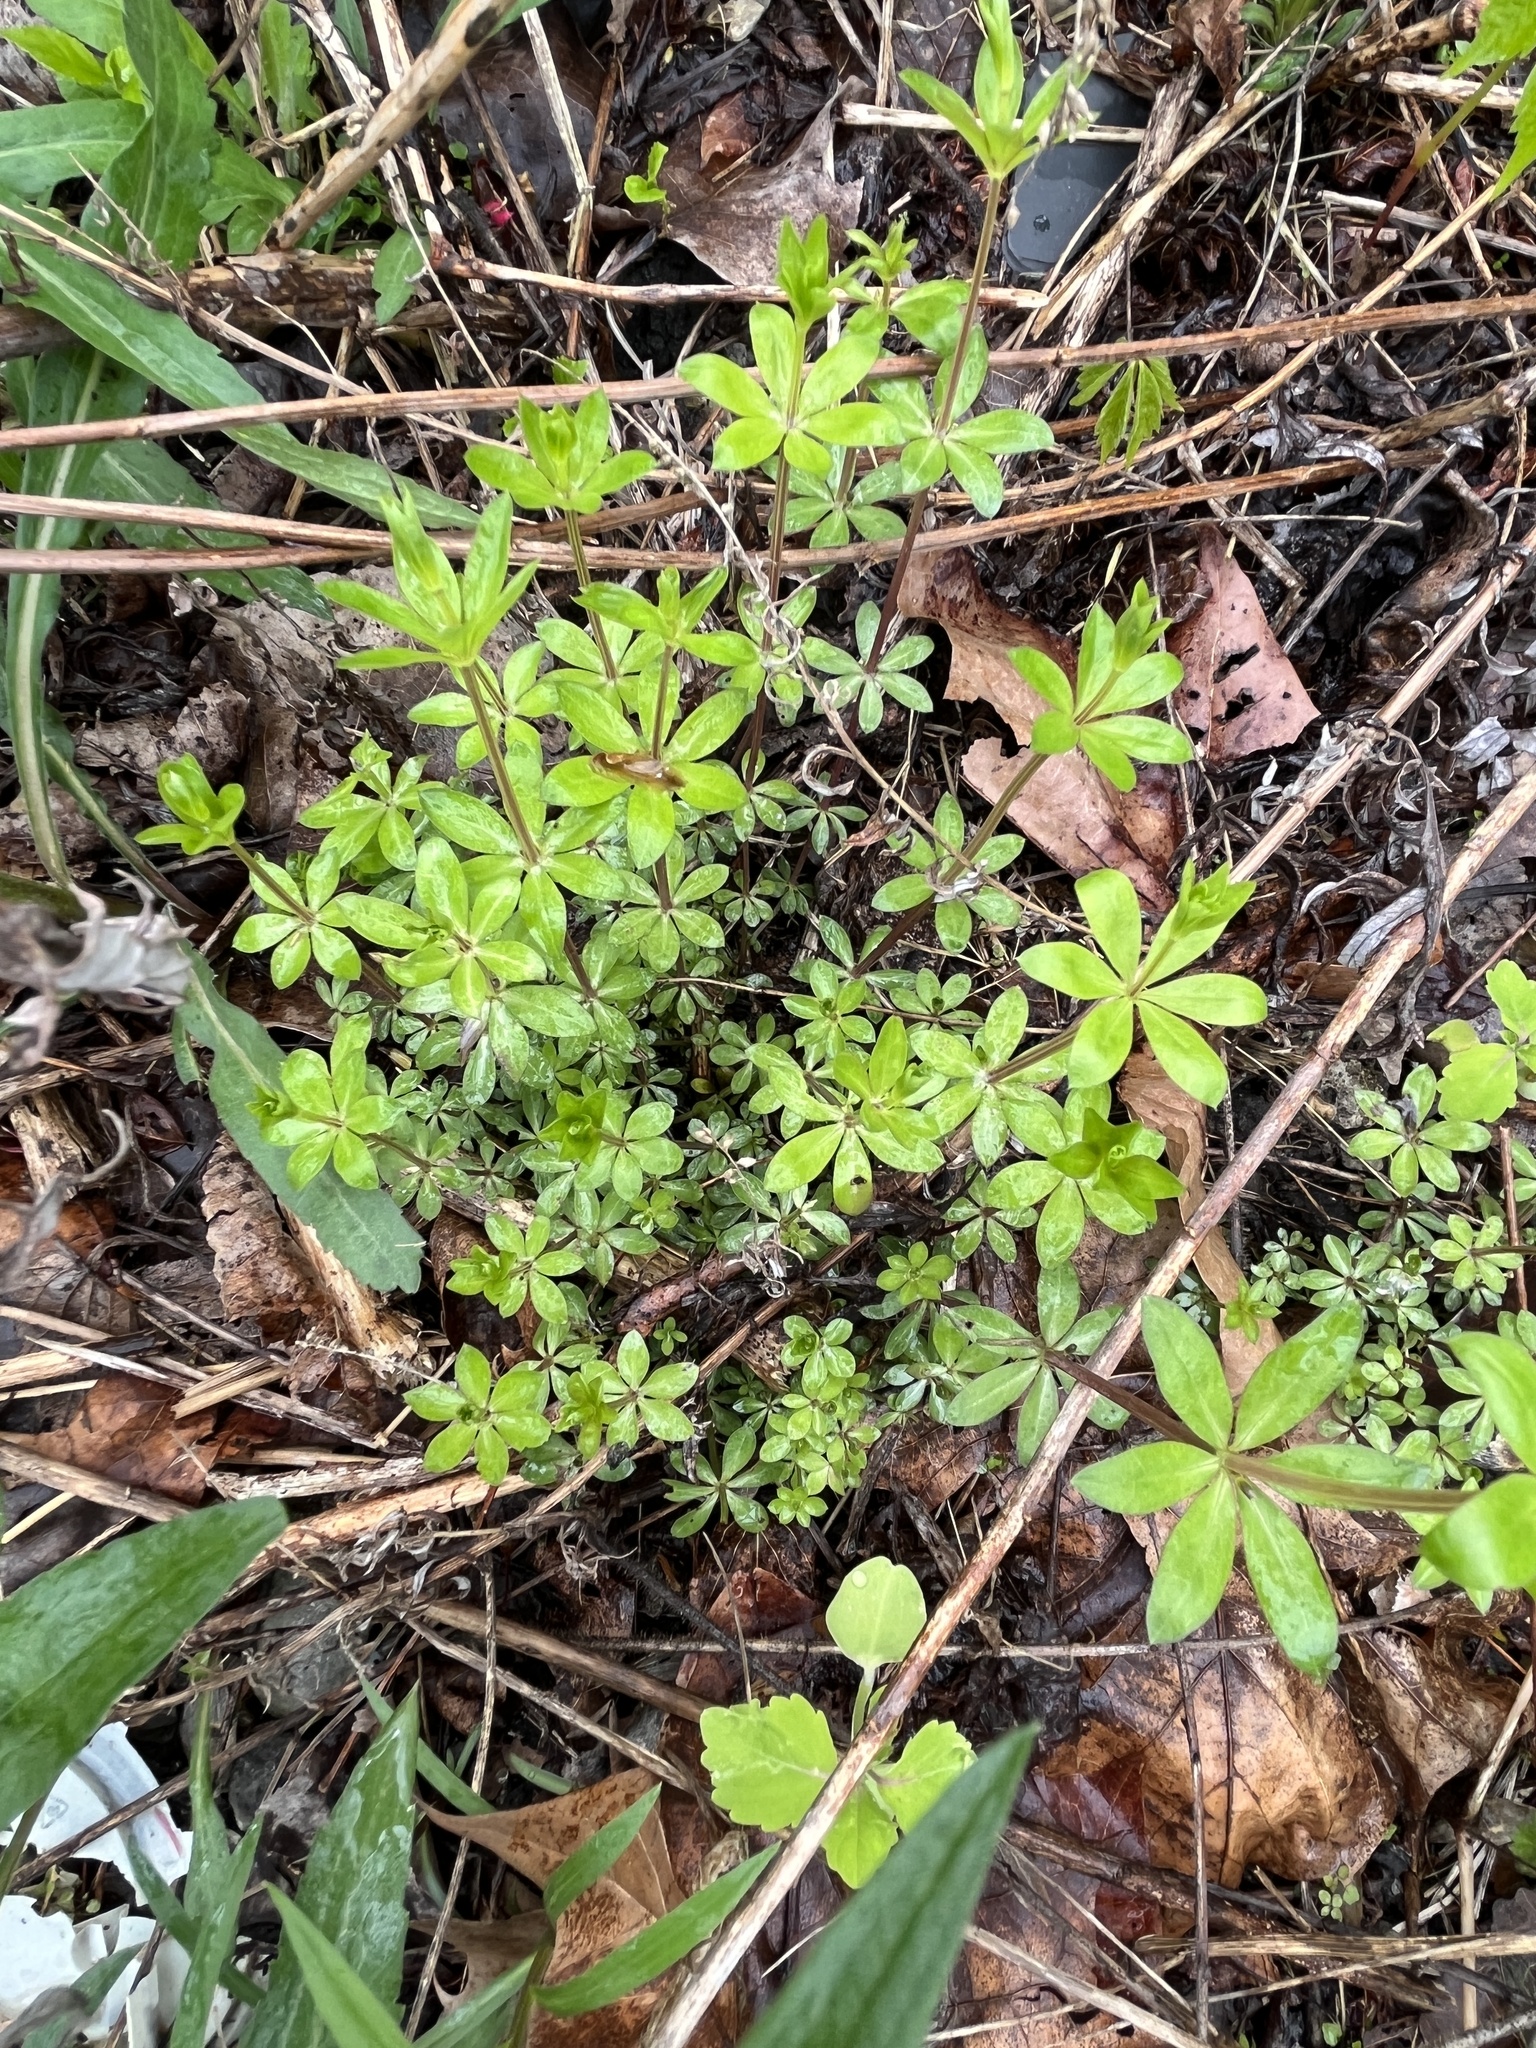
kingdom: Plantae
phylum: Tracheophyta
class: Magnoliopsida
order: Gentianales
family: Rubiaceae
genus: Galium
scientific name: Galium triflorum
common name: Fragrant bedstraw
